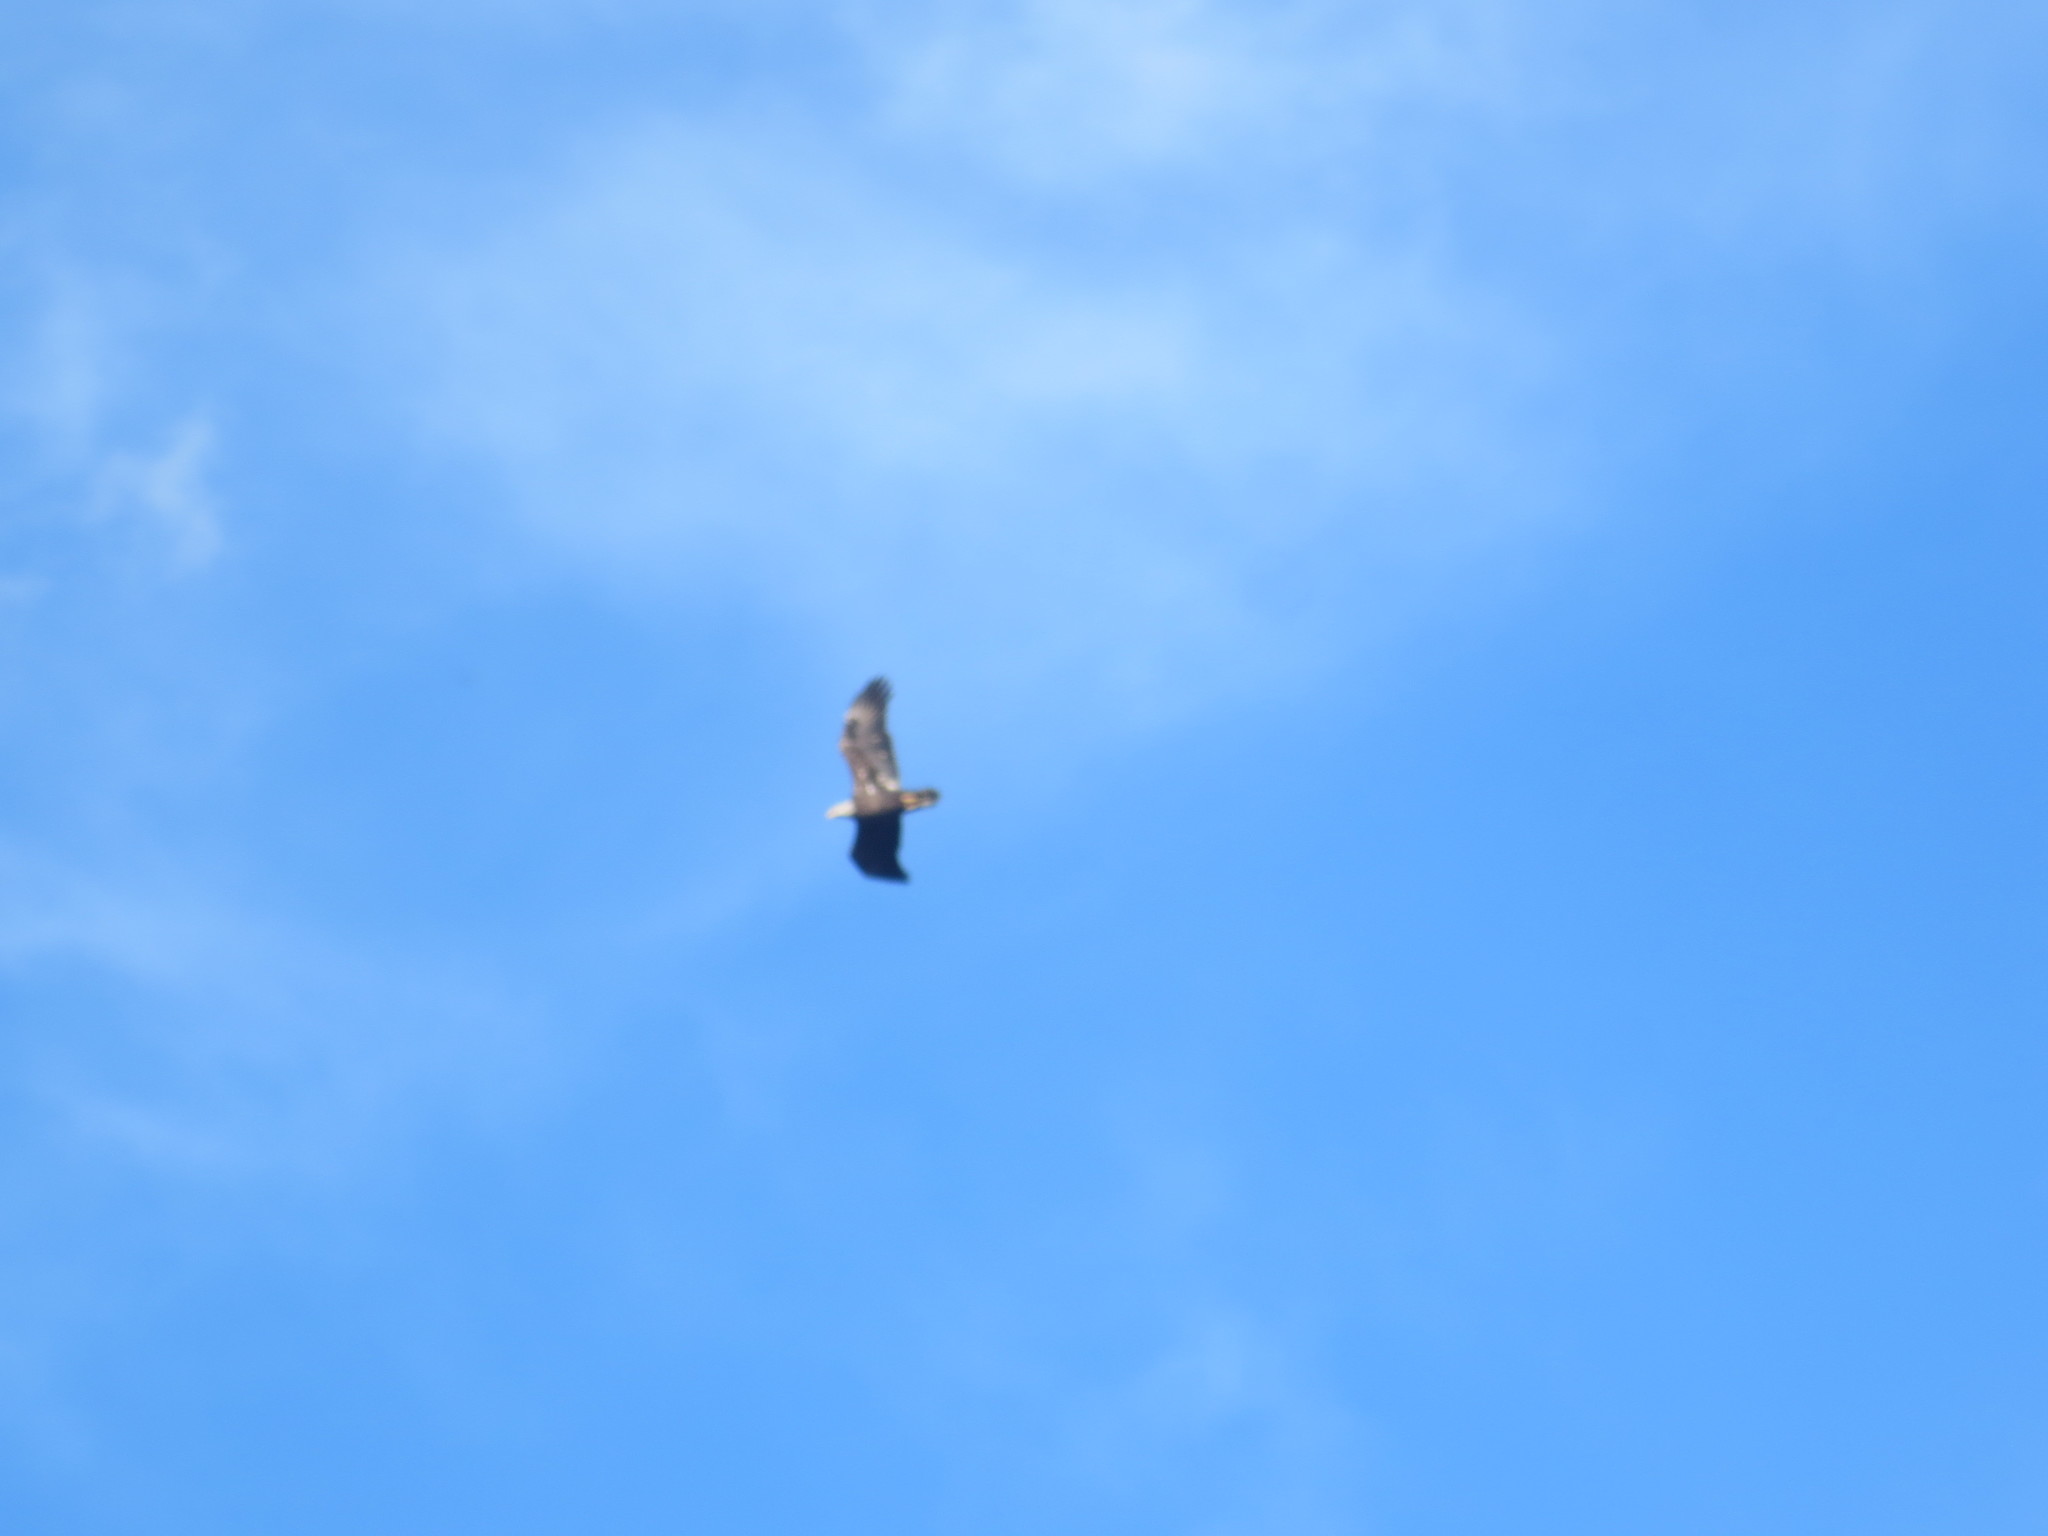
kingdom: Animalia
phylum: Chordata
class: Aves
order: Accipitriformes
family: Accipitridae
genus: Haliaeetus
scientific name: Haliaeetus leucocephalus
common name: Bald eagle
